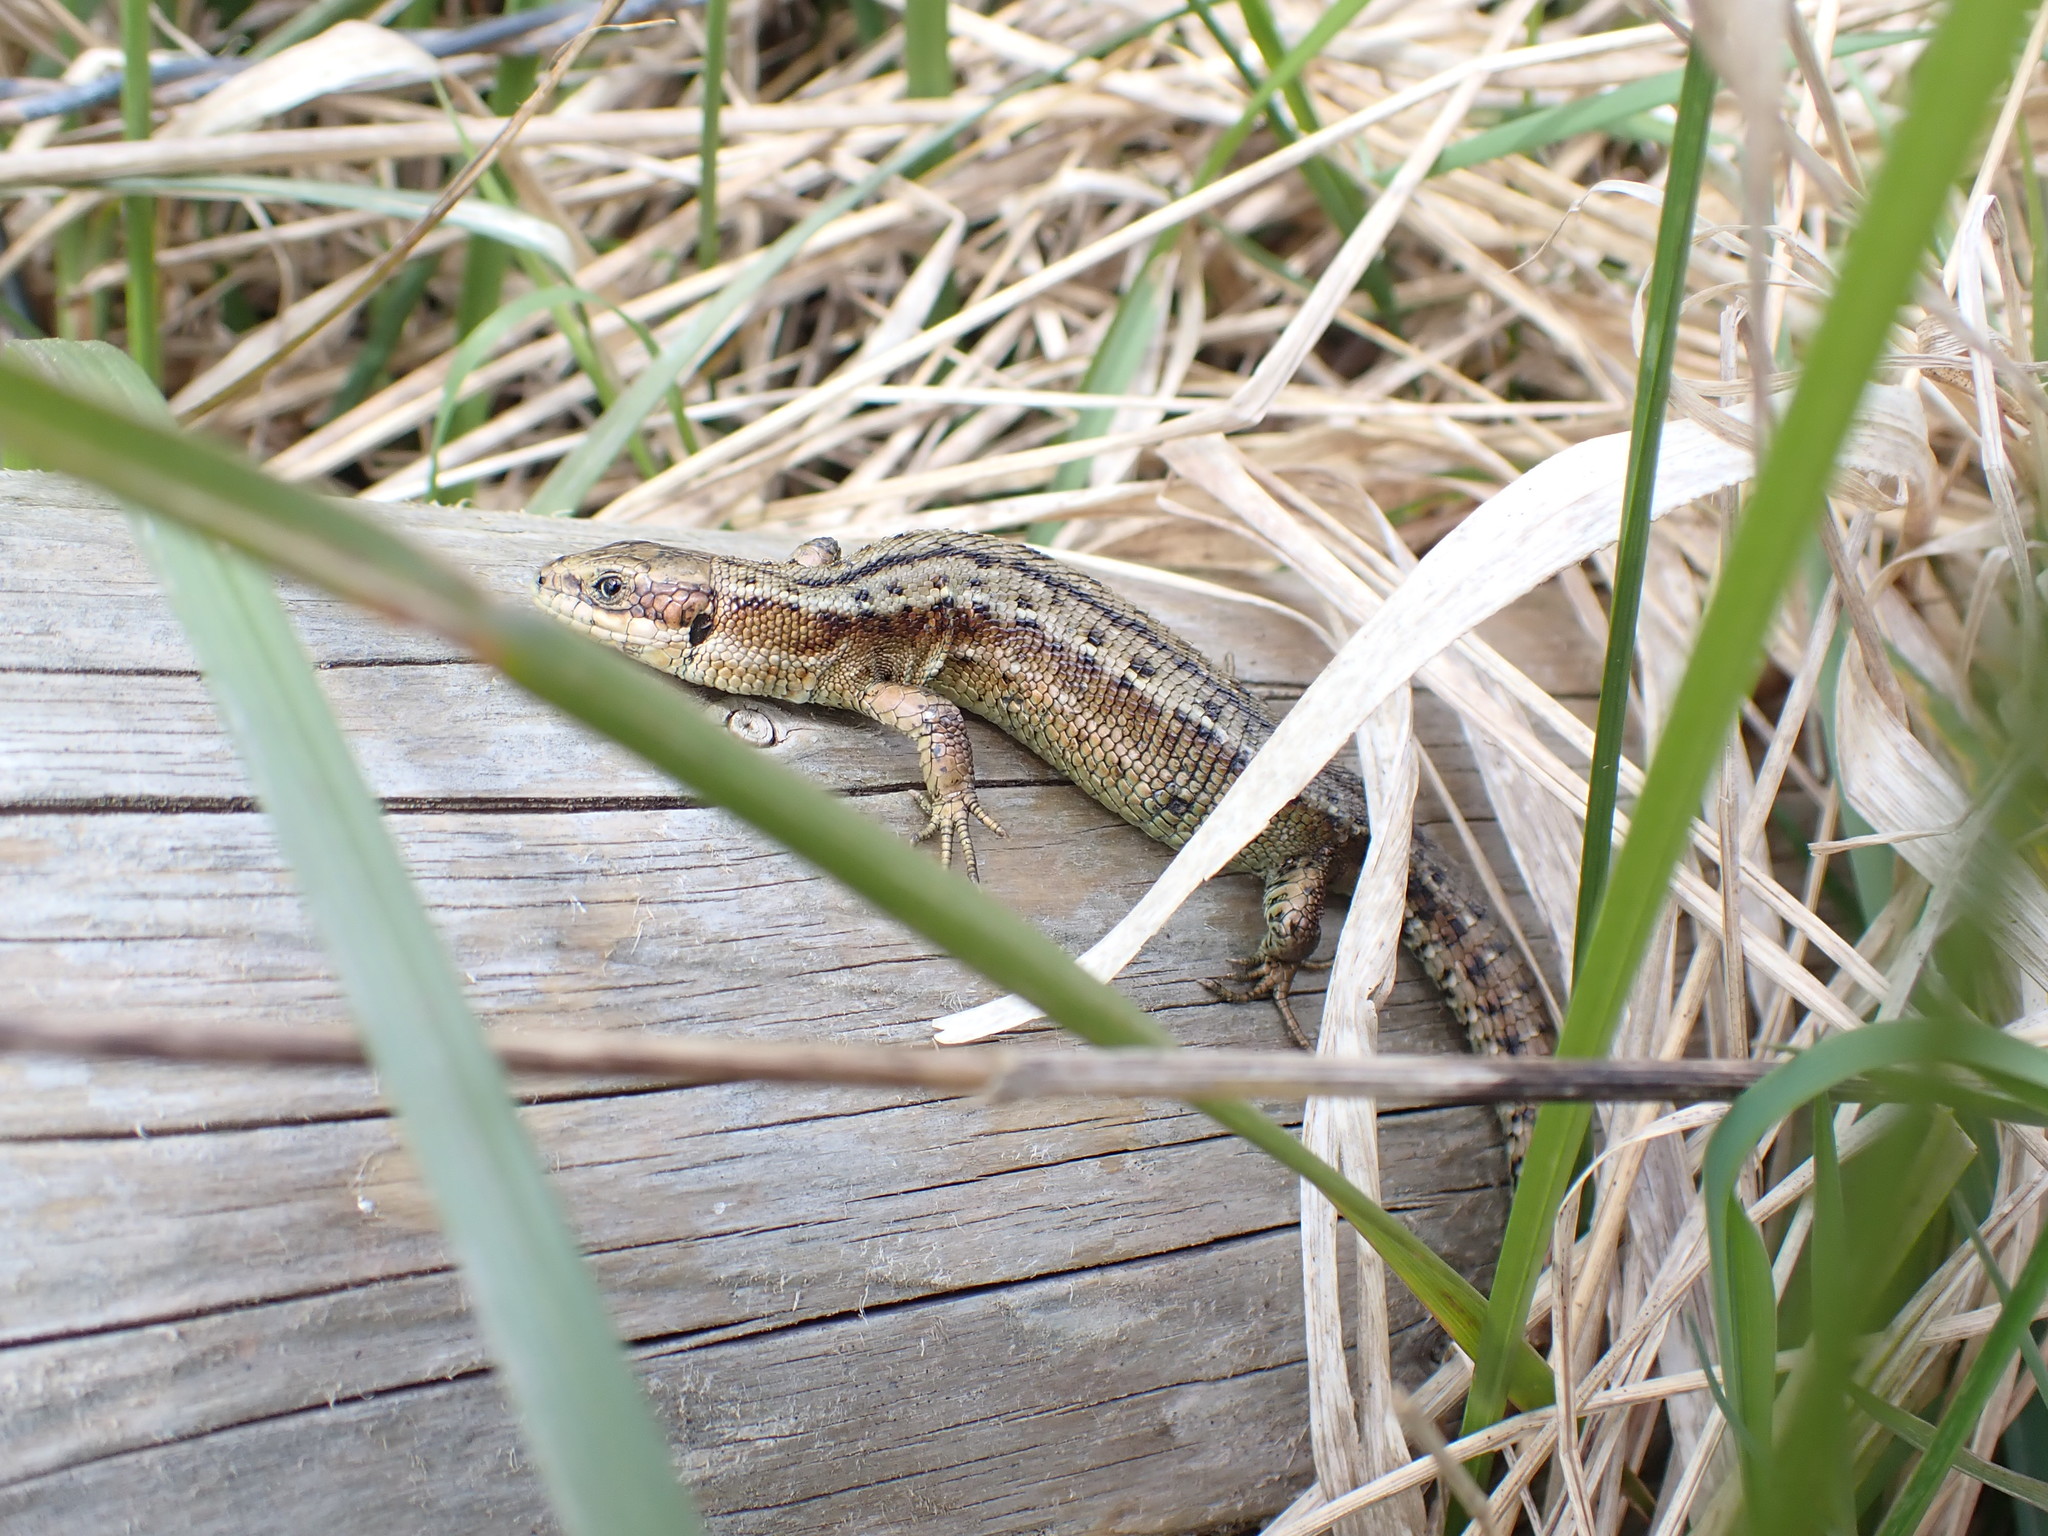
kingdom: Animalia
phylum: Chordata
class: Squamata
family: Lacertidae
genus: Zootoca
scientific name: Zootoca vivipara
